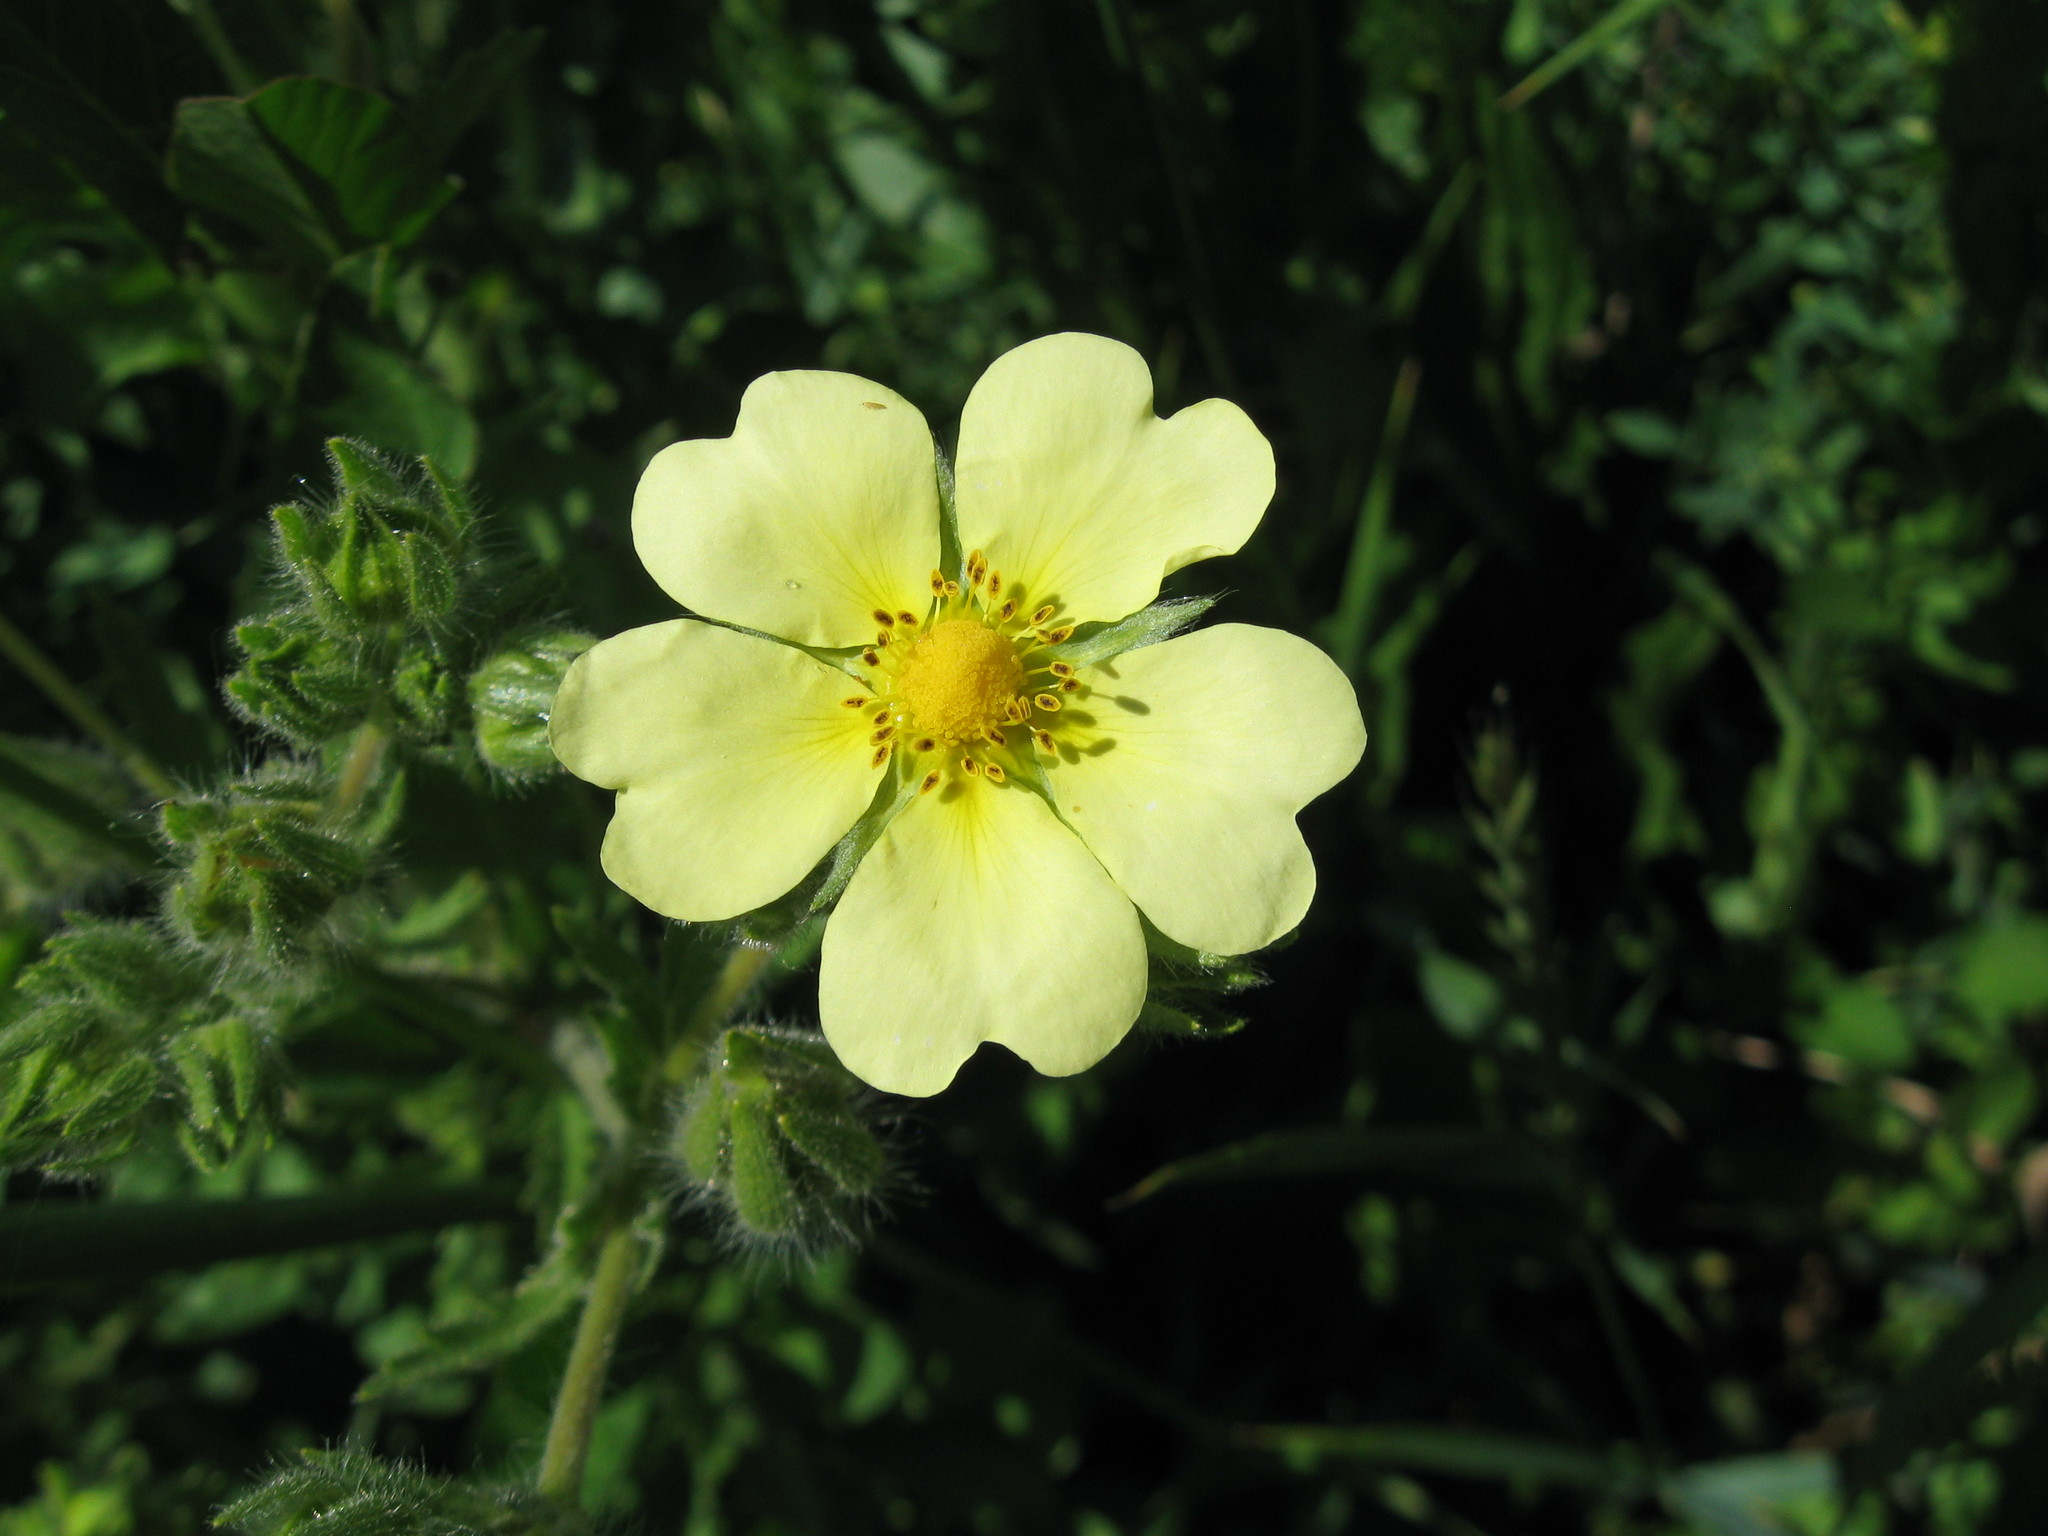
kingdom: Plantae
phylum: Tracheophyta
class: Magnoliopsida
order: Rosales
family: Rosaceae
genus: Potentilla
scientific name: Potentilla recta
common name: Sulphur cinquefoil
